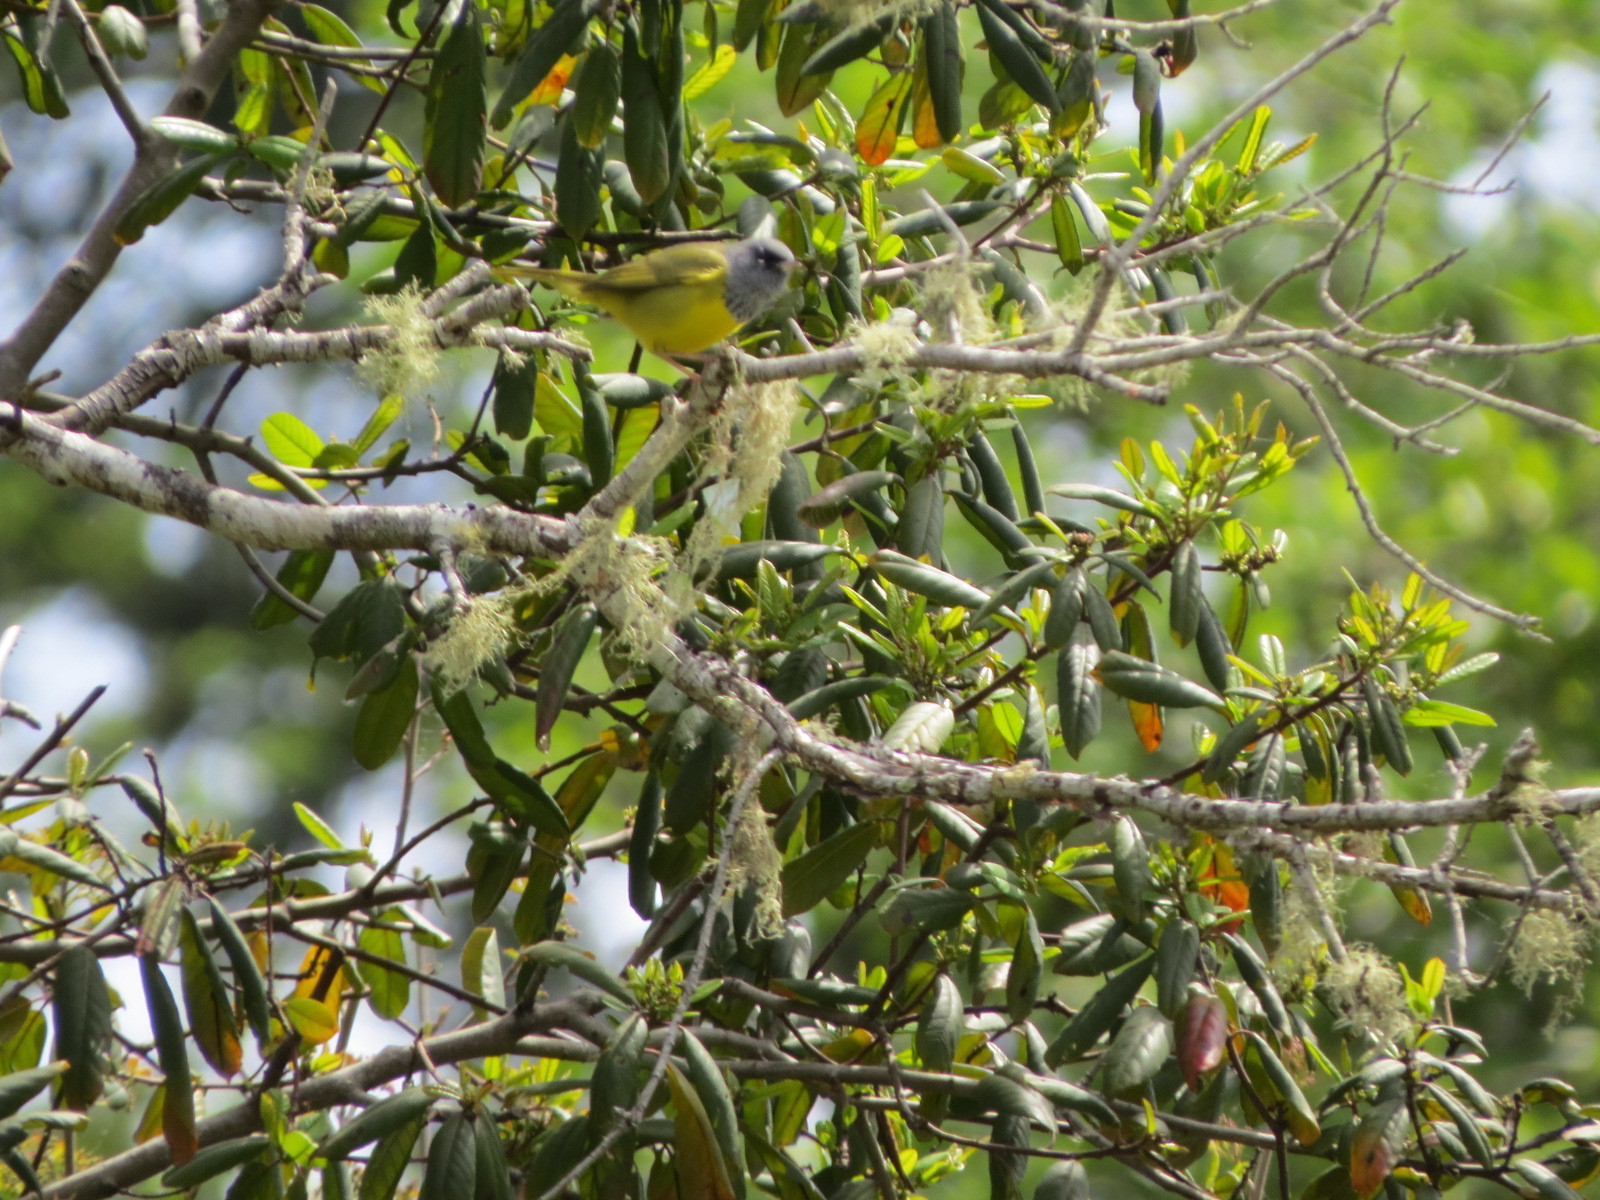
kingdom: Animalia
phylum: Chordata
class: Aves
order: Passeriformes
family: Parulidae
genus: Geothlypis
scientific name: Geothlypis tolmiei
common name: Macgillivray's warbler
